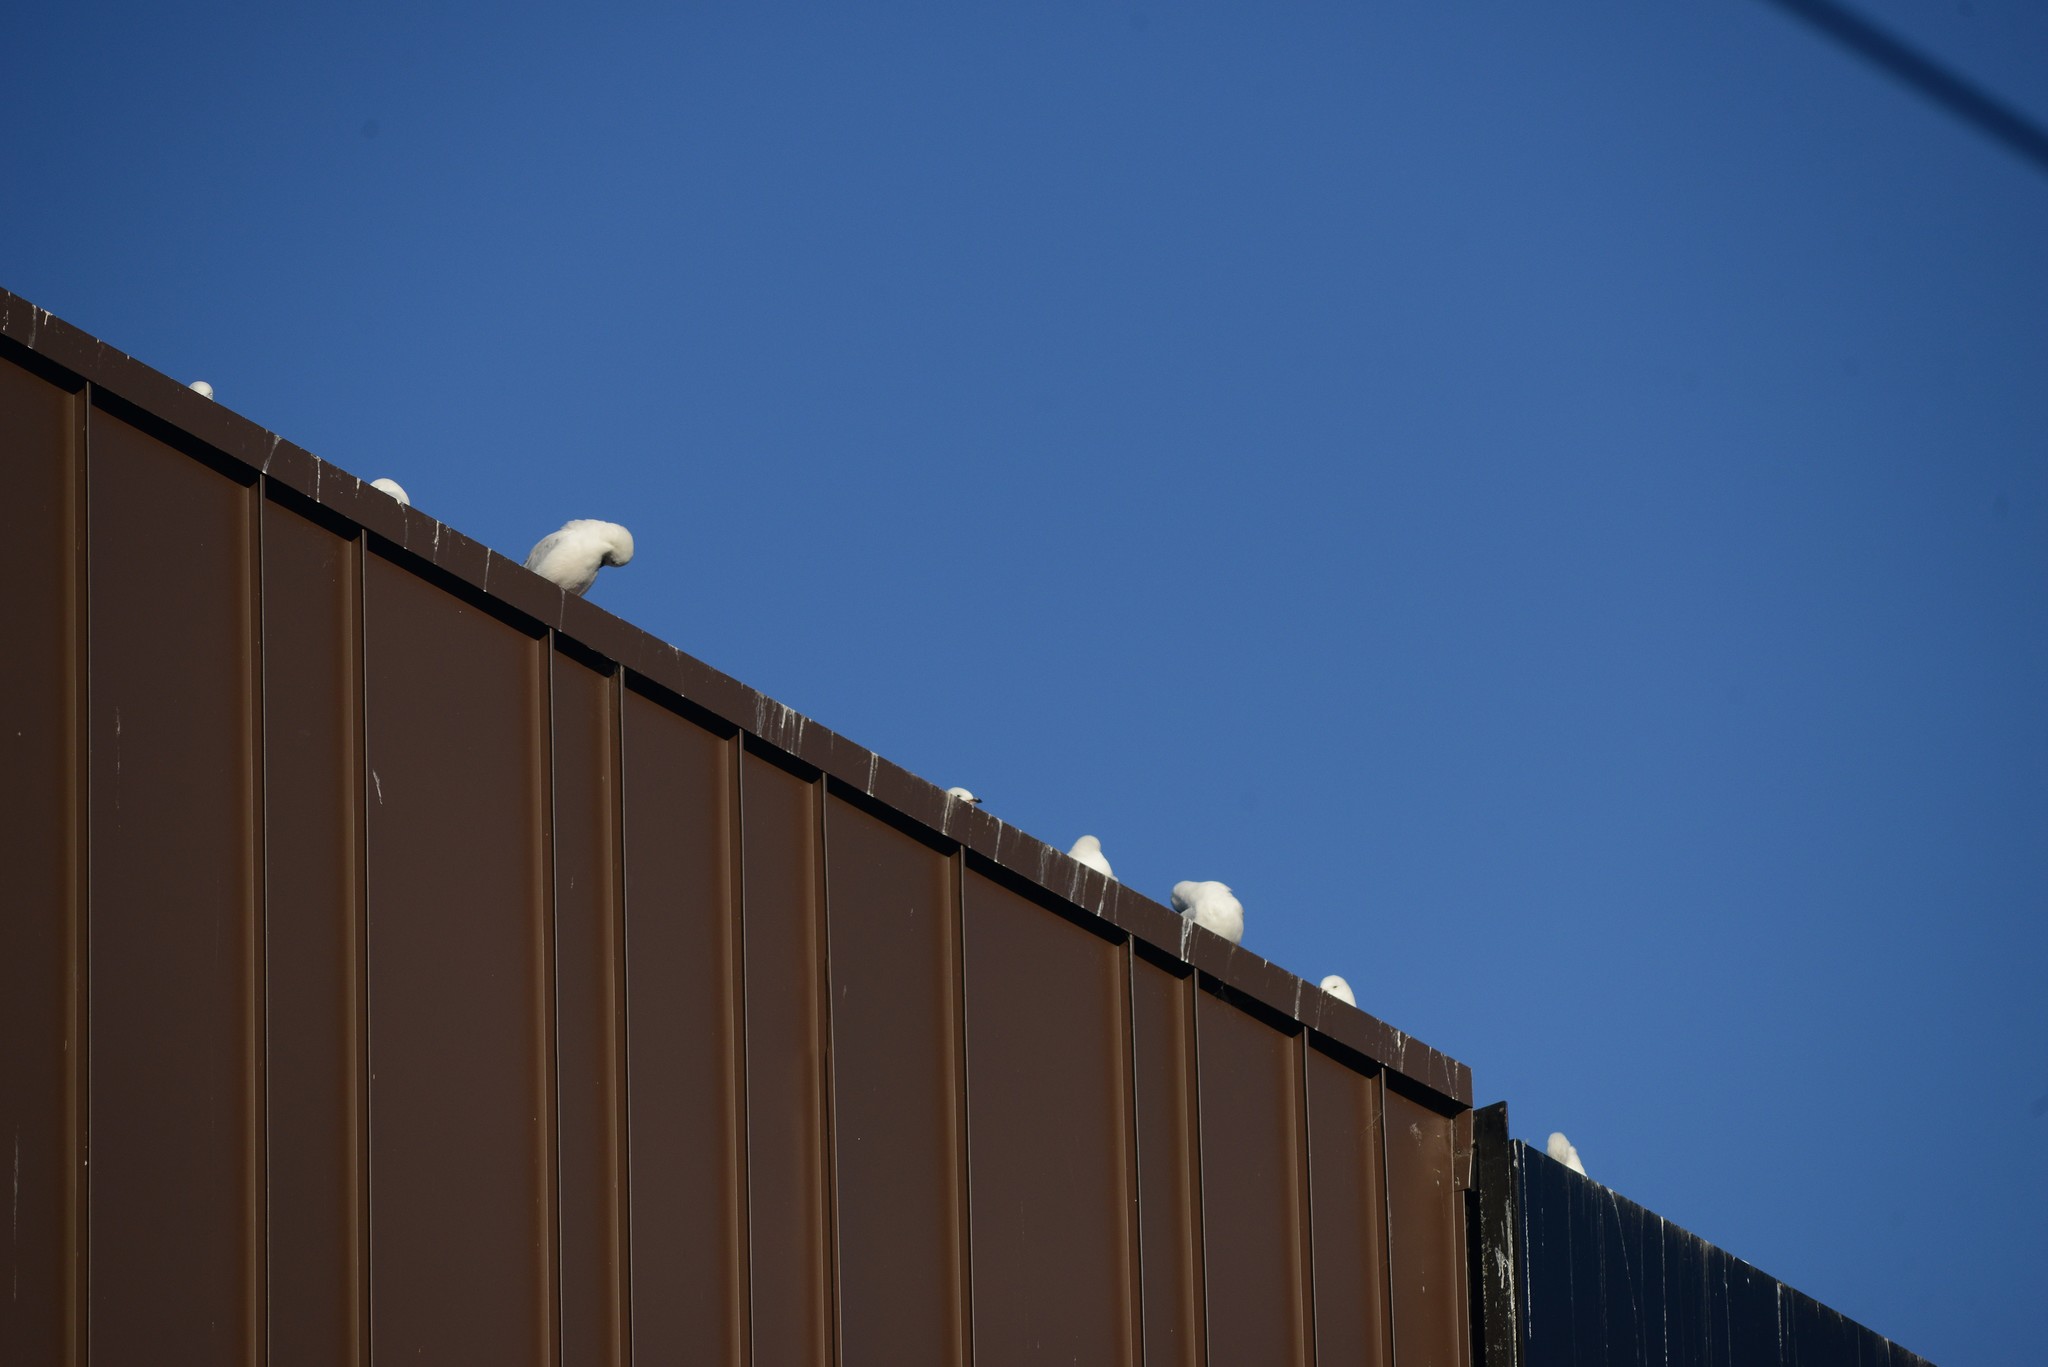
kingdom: Animalia
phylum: Chordata
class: Aves
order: Charadriiformes
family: Laridae
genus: Chroicocephalus
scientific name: Chroicocephalus novaehollandiae
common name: Silver gull
